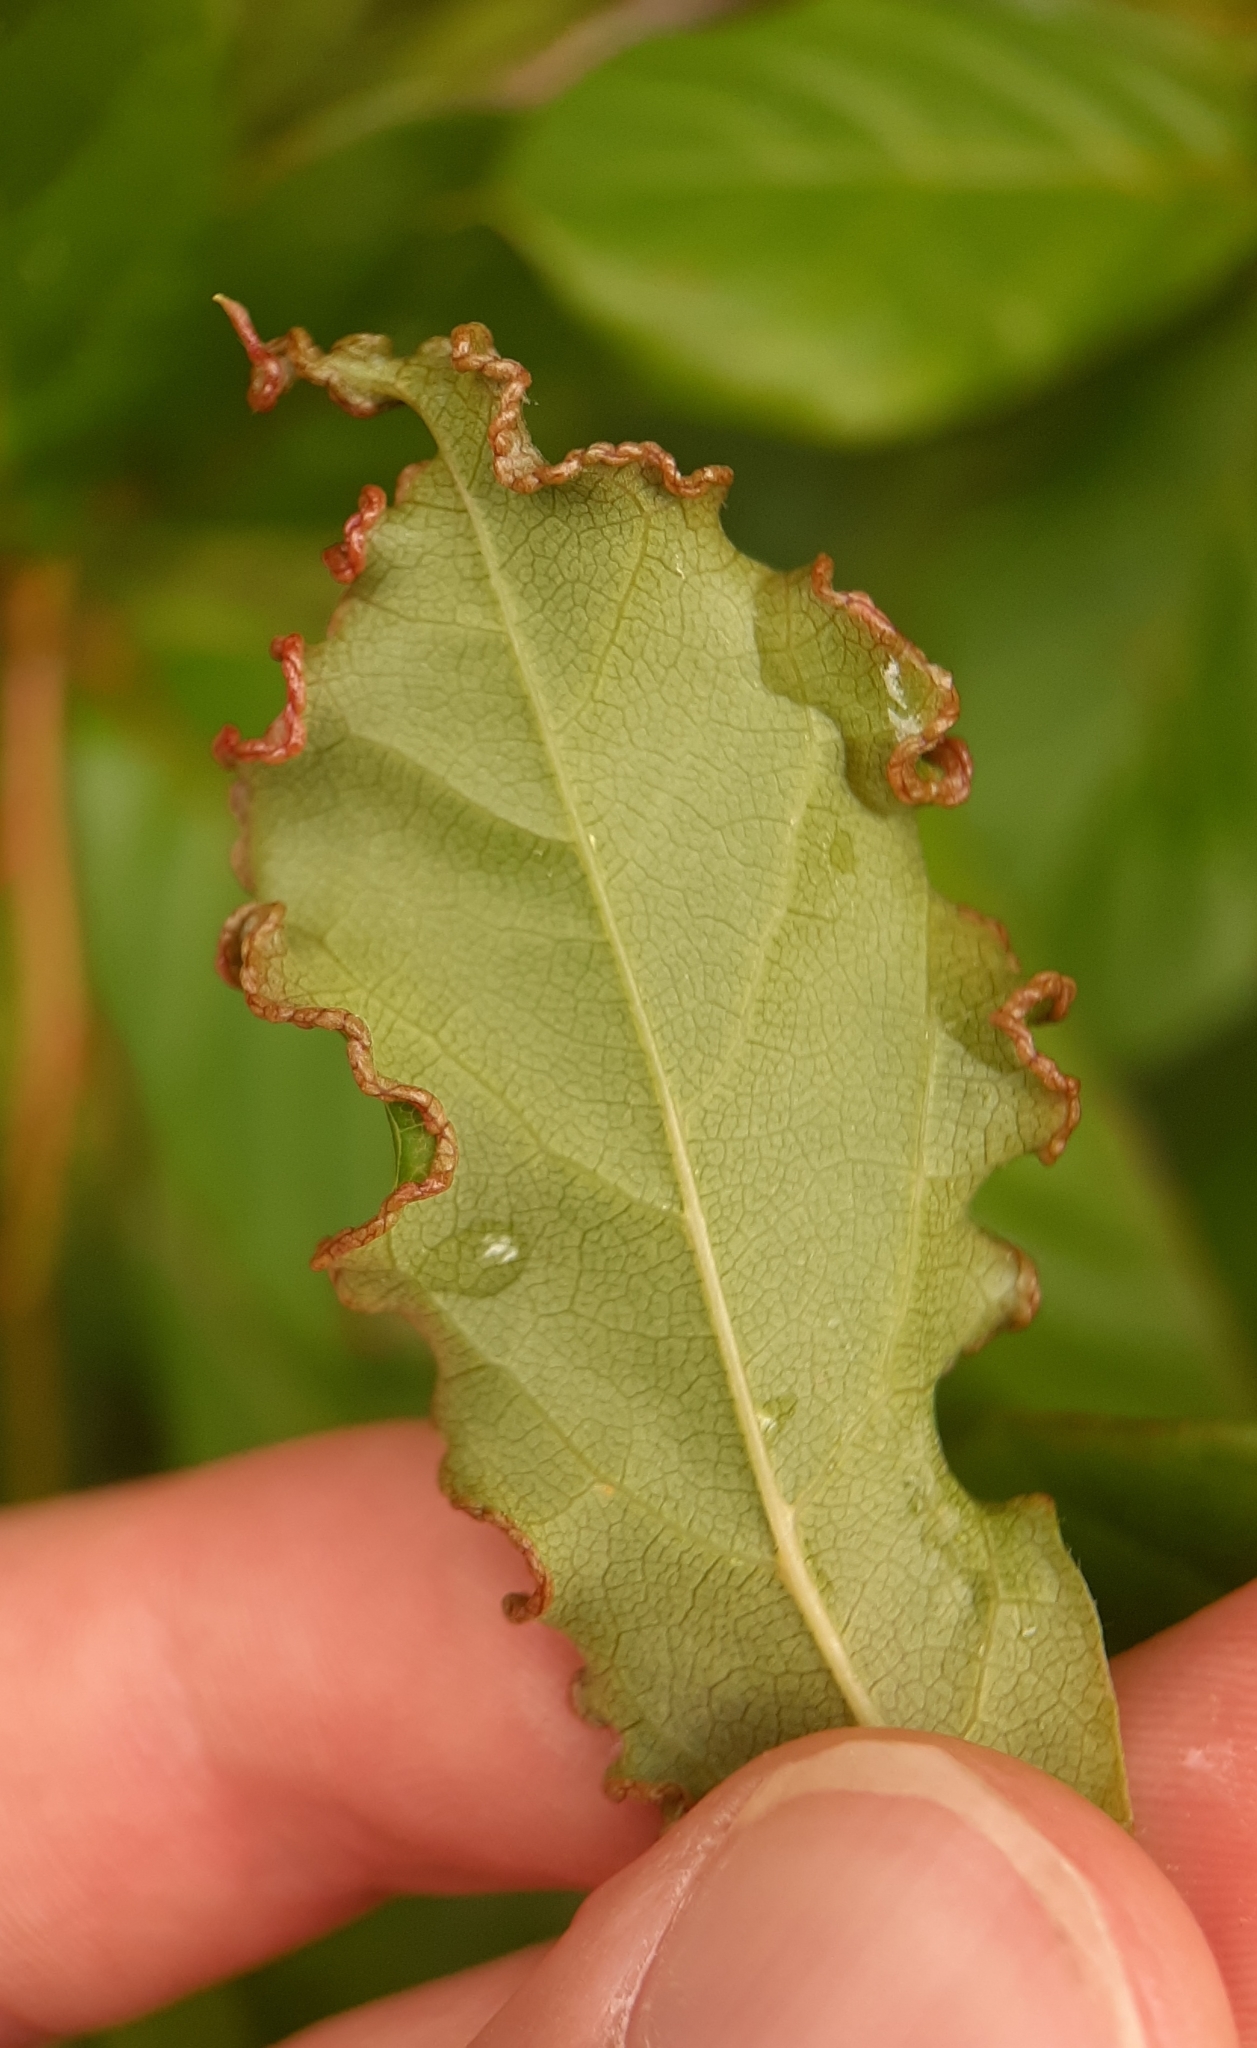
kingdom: Animalia
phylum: Arthropoda
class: Arachnida
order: Trombidiformes
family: Eriophyidae
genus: Aceria
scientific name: Aceria
